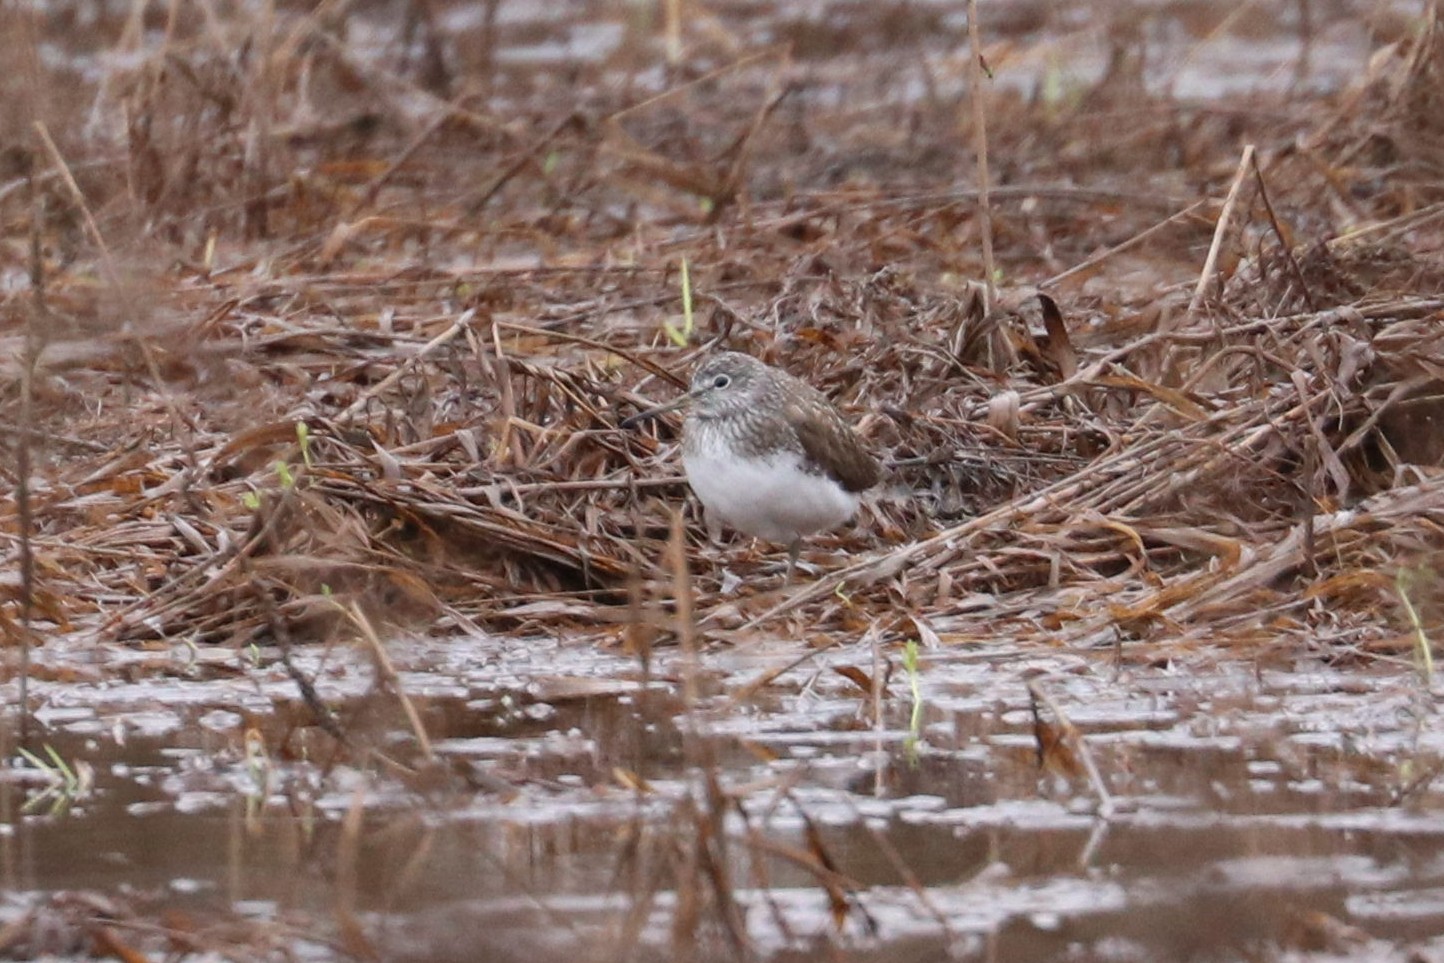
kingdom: Animalia
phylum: Chordata
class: Aves
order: Charadriiformes
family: Scolopacidae
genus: Tringa
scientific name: Tringa ochropus
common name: Green sandpiper
